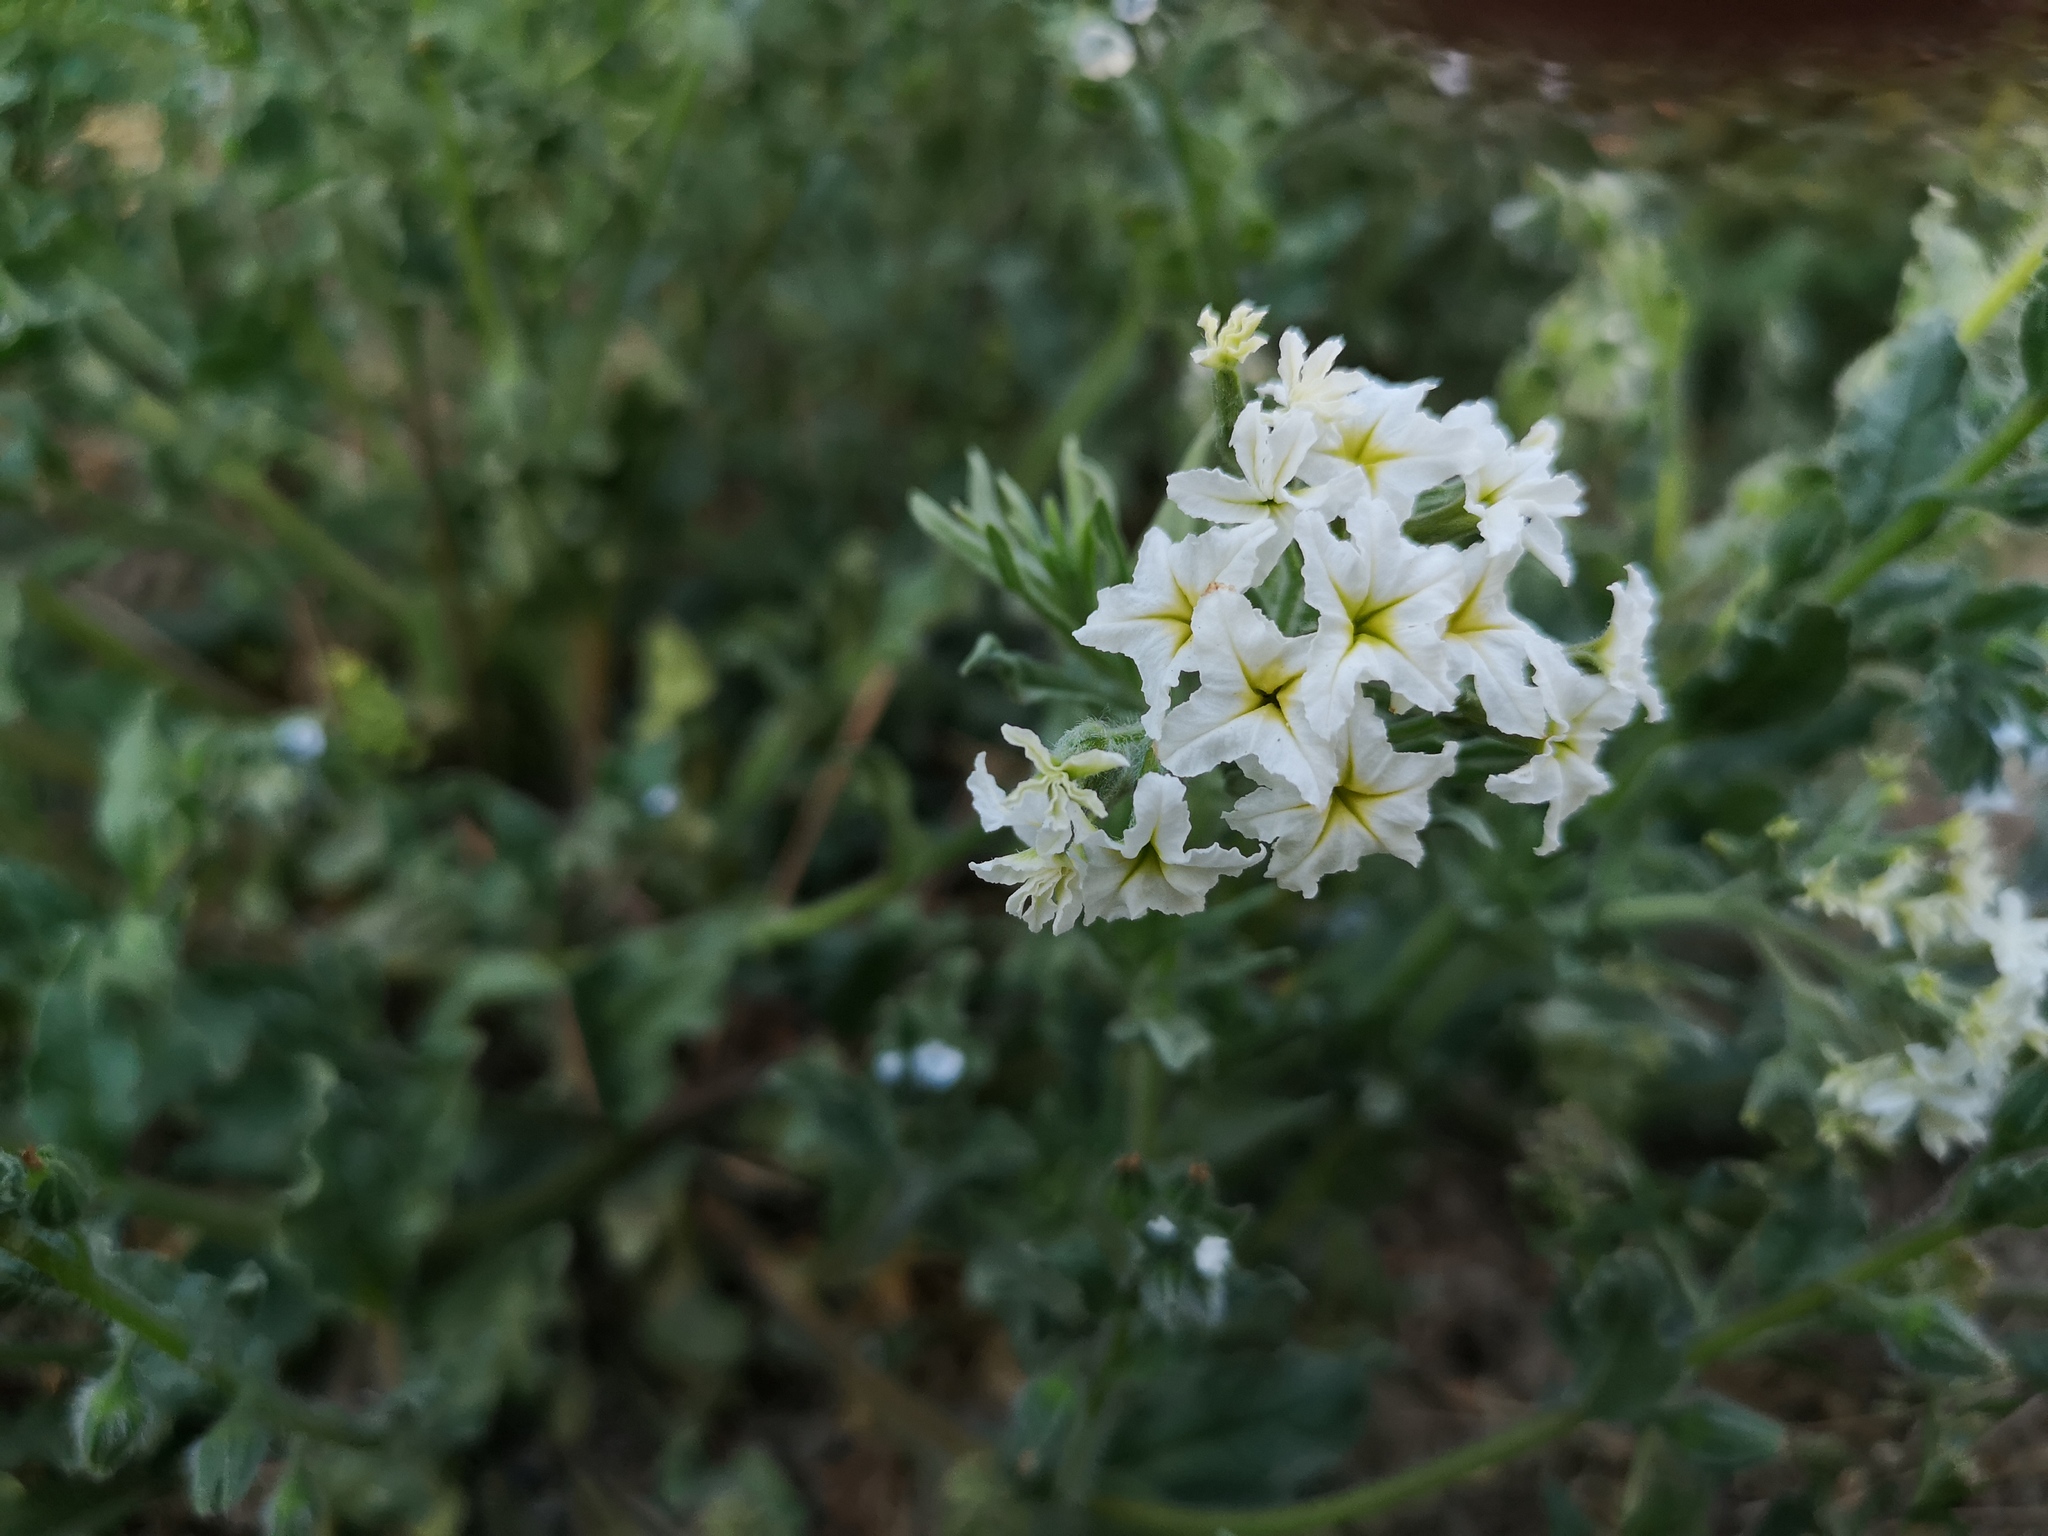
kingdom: Plantae
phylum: Tracheophyta
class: Magnoliopsida
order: Boraginales
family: Heliotropiaceae
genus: Tournefortia
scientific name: Tournefortia sibirica
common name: Siberian sea rosemary
